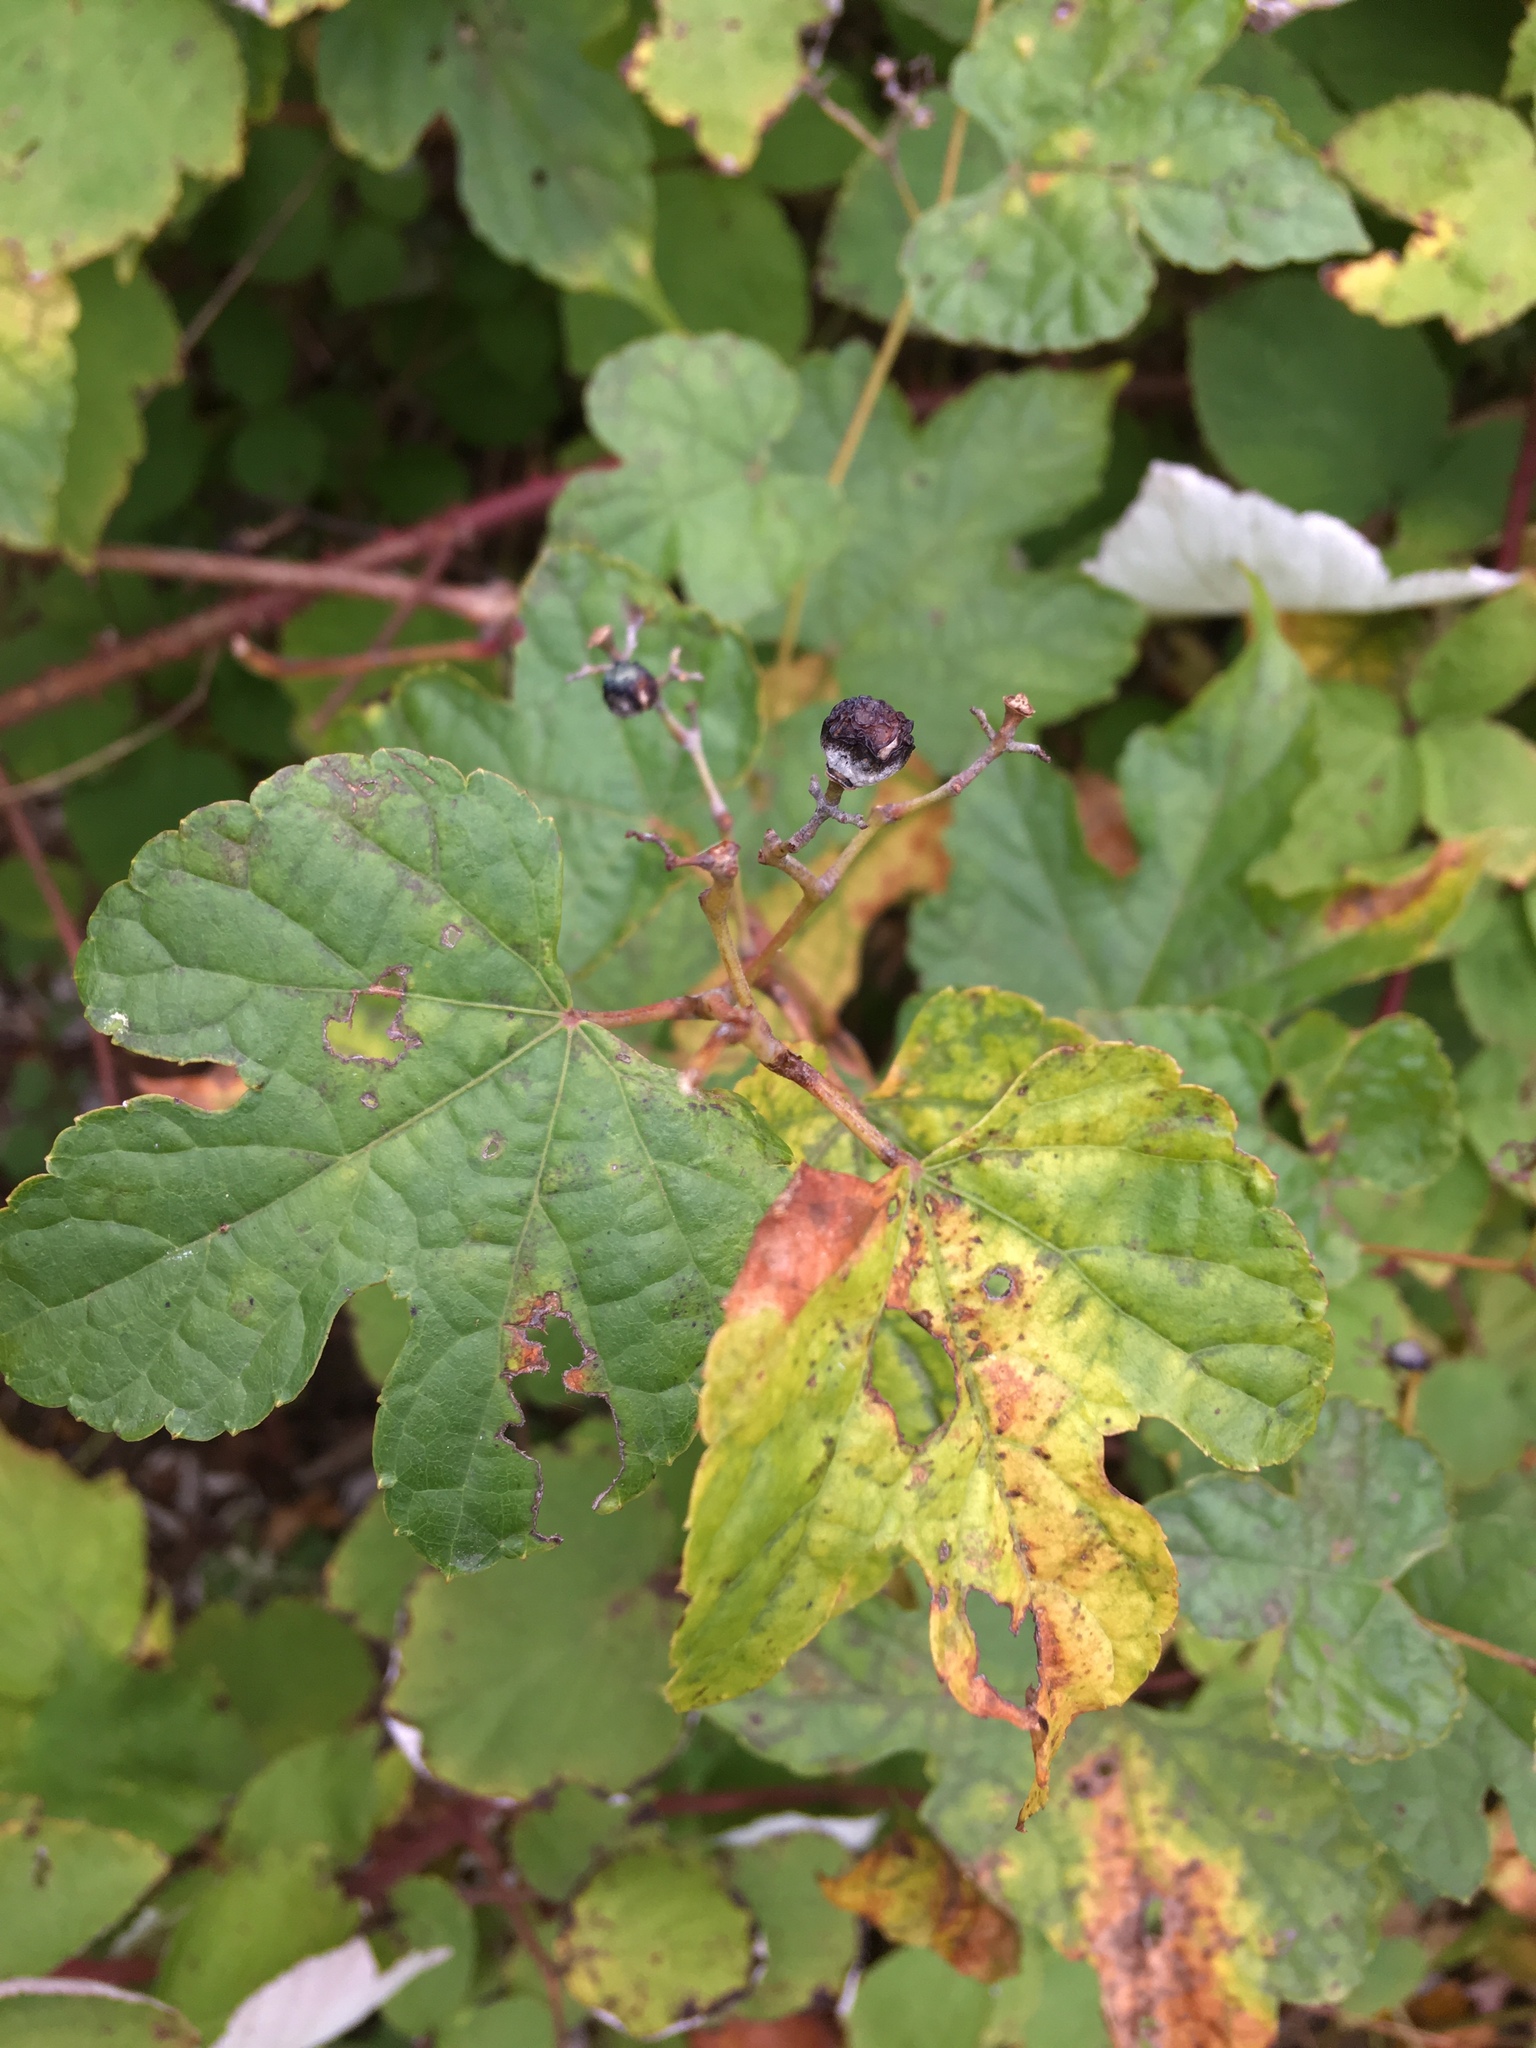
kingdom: Plantae
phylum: Tracheophyta
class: Magnoliopsida
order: Vitales
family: Vitaceae
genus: Ampelopsis
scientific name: Ampelopsis glandulosa
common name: Amur peppervine
